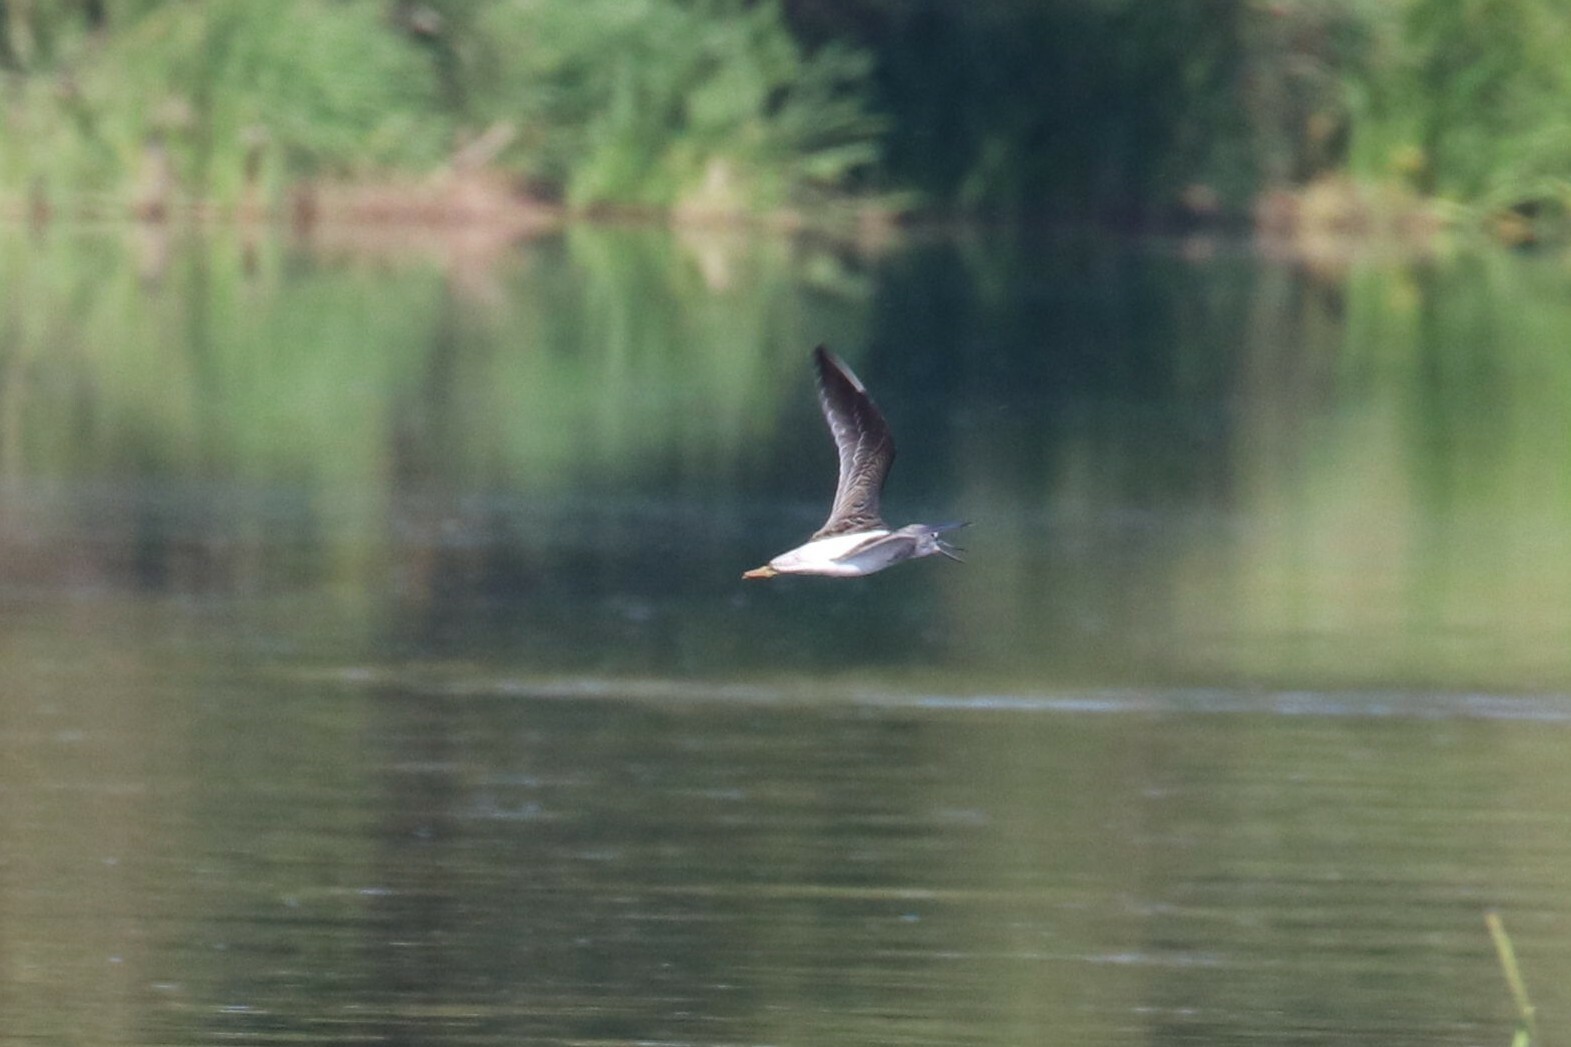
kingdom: Animalia
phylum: Chordata
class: Aves
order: Charadriiformes
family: Scolopacidae
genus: Tringa
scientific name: Tringa nebularia
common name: Common greenshank
